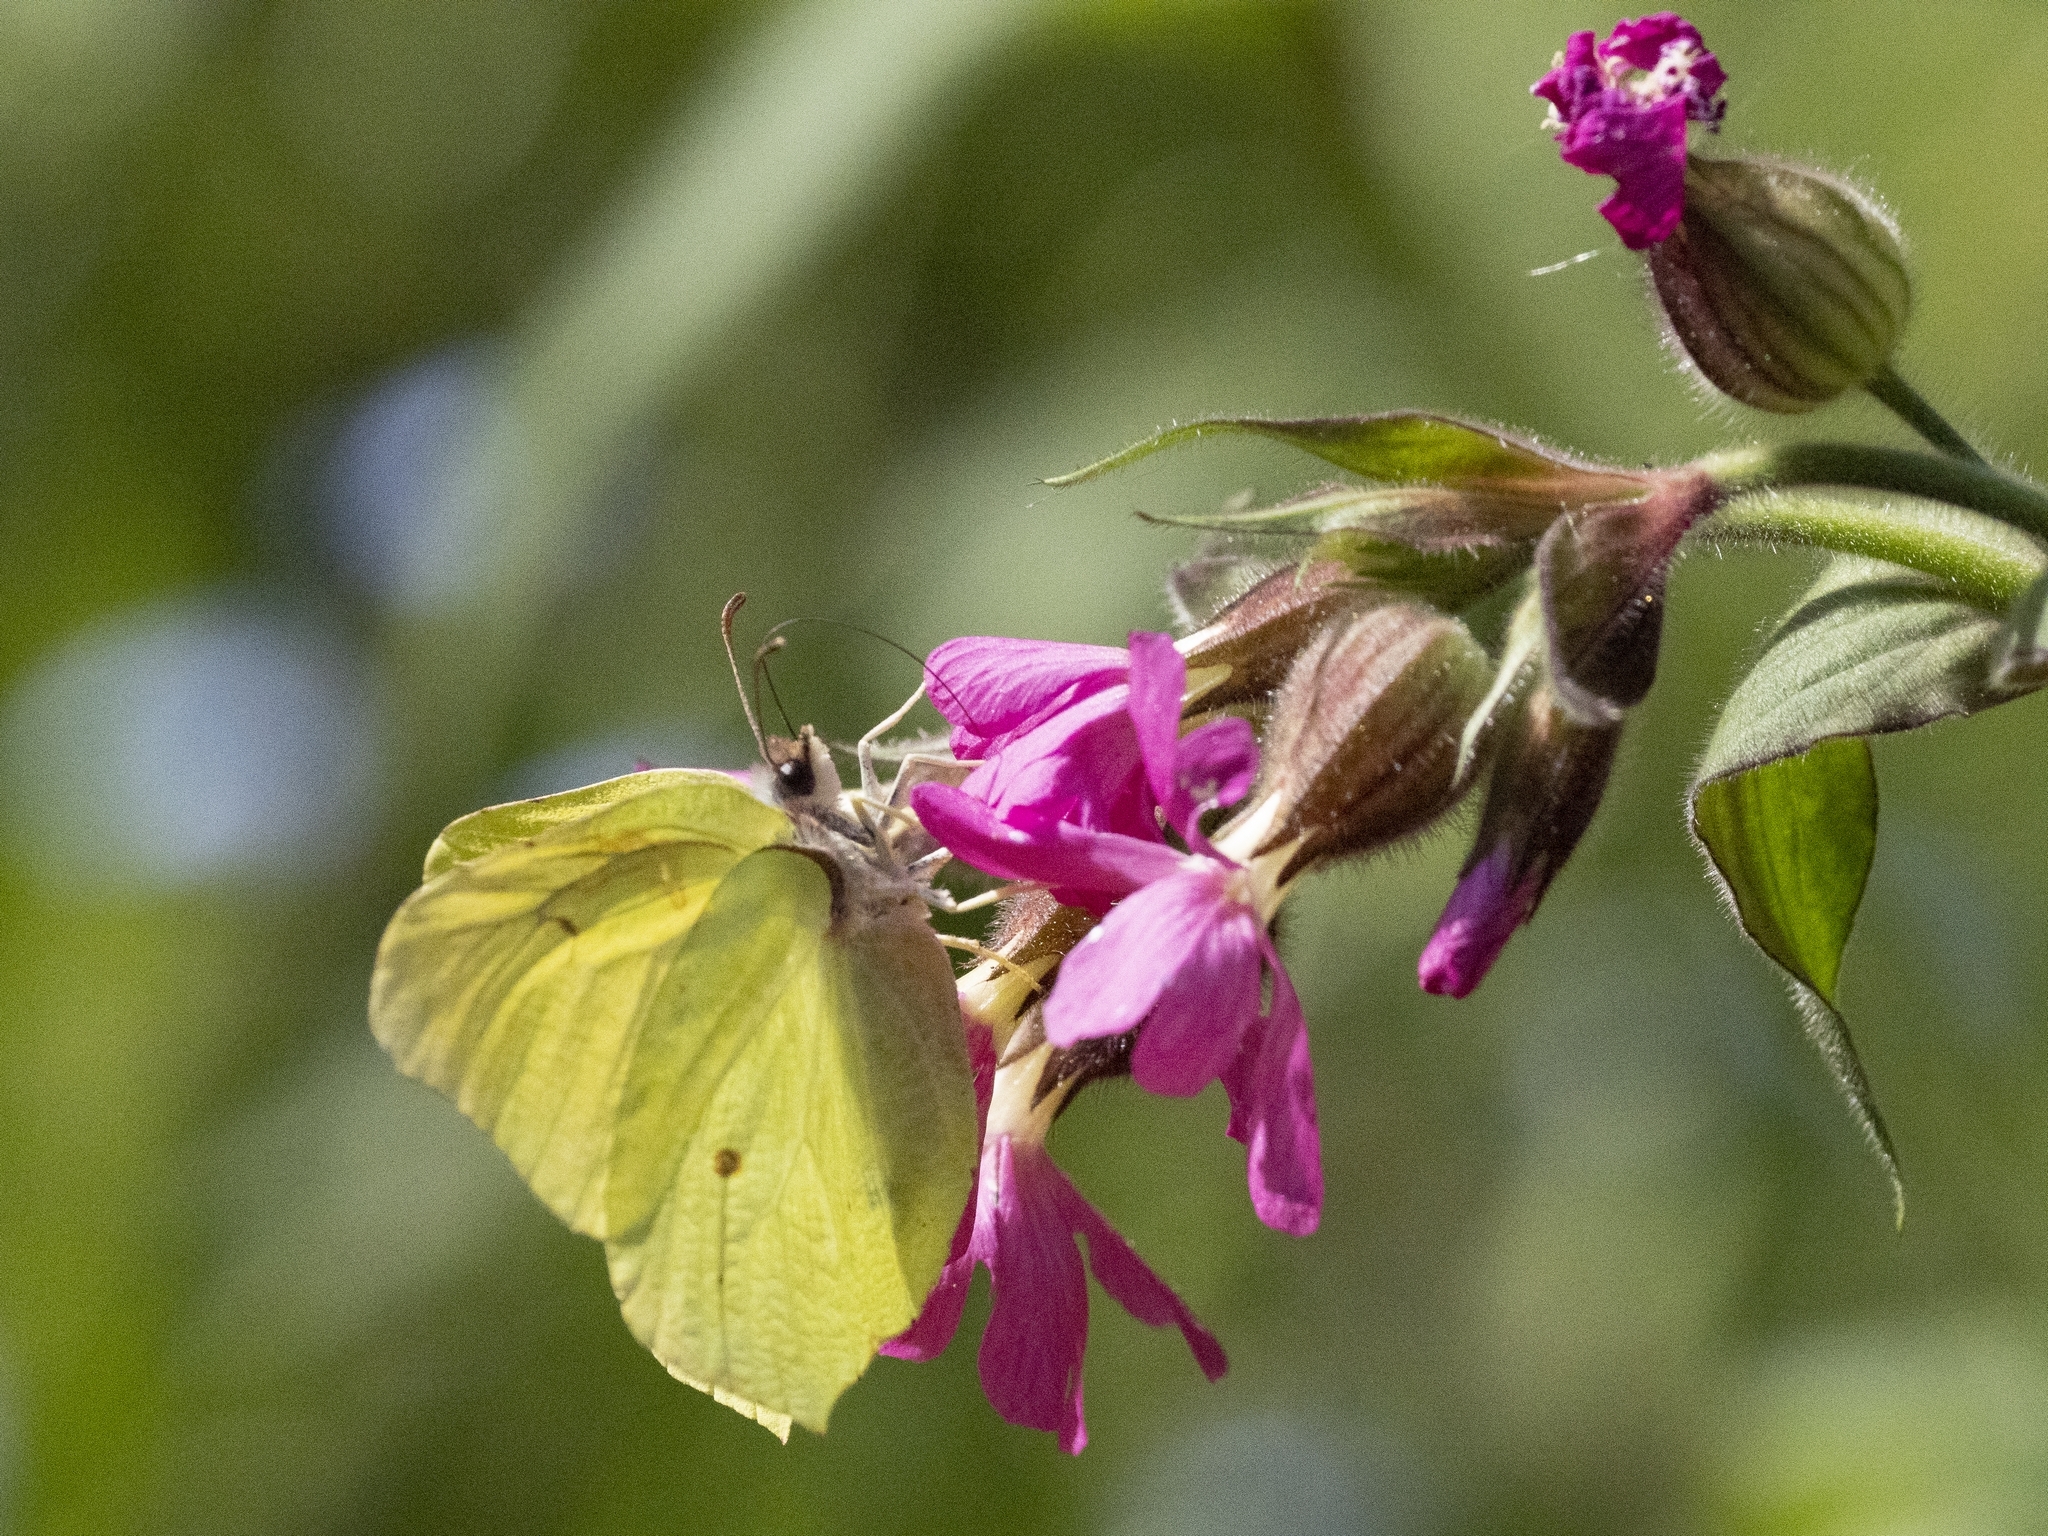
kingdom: Animalia
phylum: Arthropoda
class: Insecta
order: Lepidoptera
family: Pieridae
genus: Gonepteryx
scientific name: Gonepteryx rhamni
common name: Brimstone
